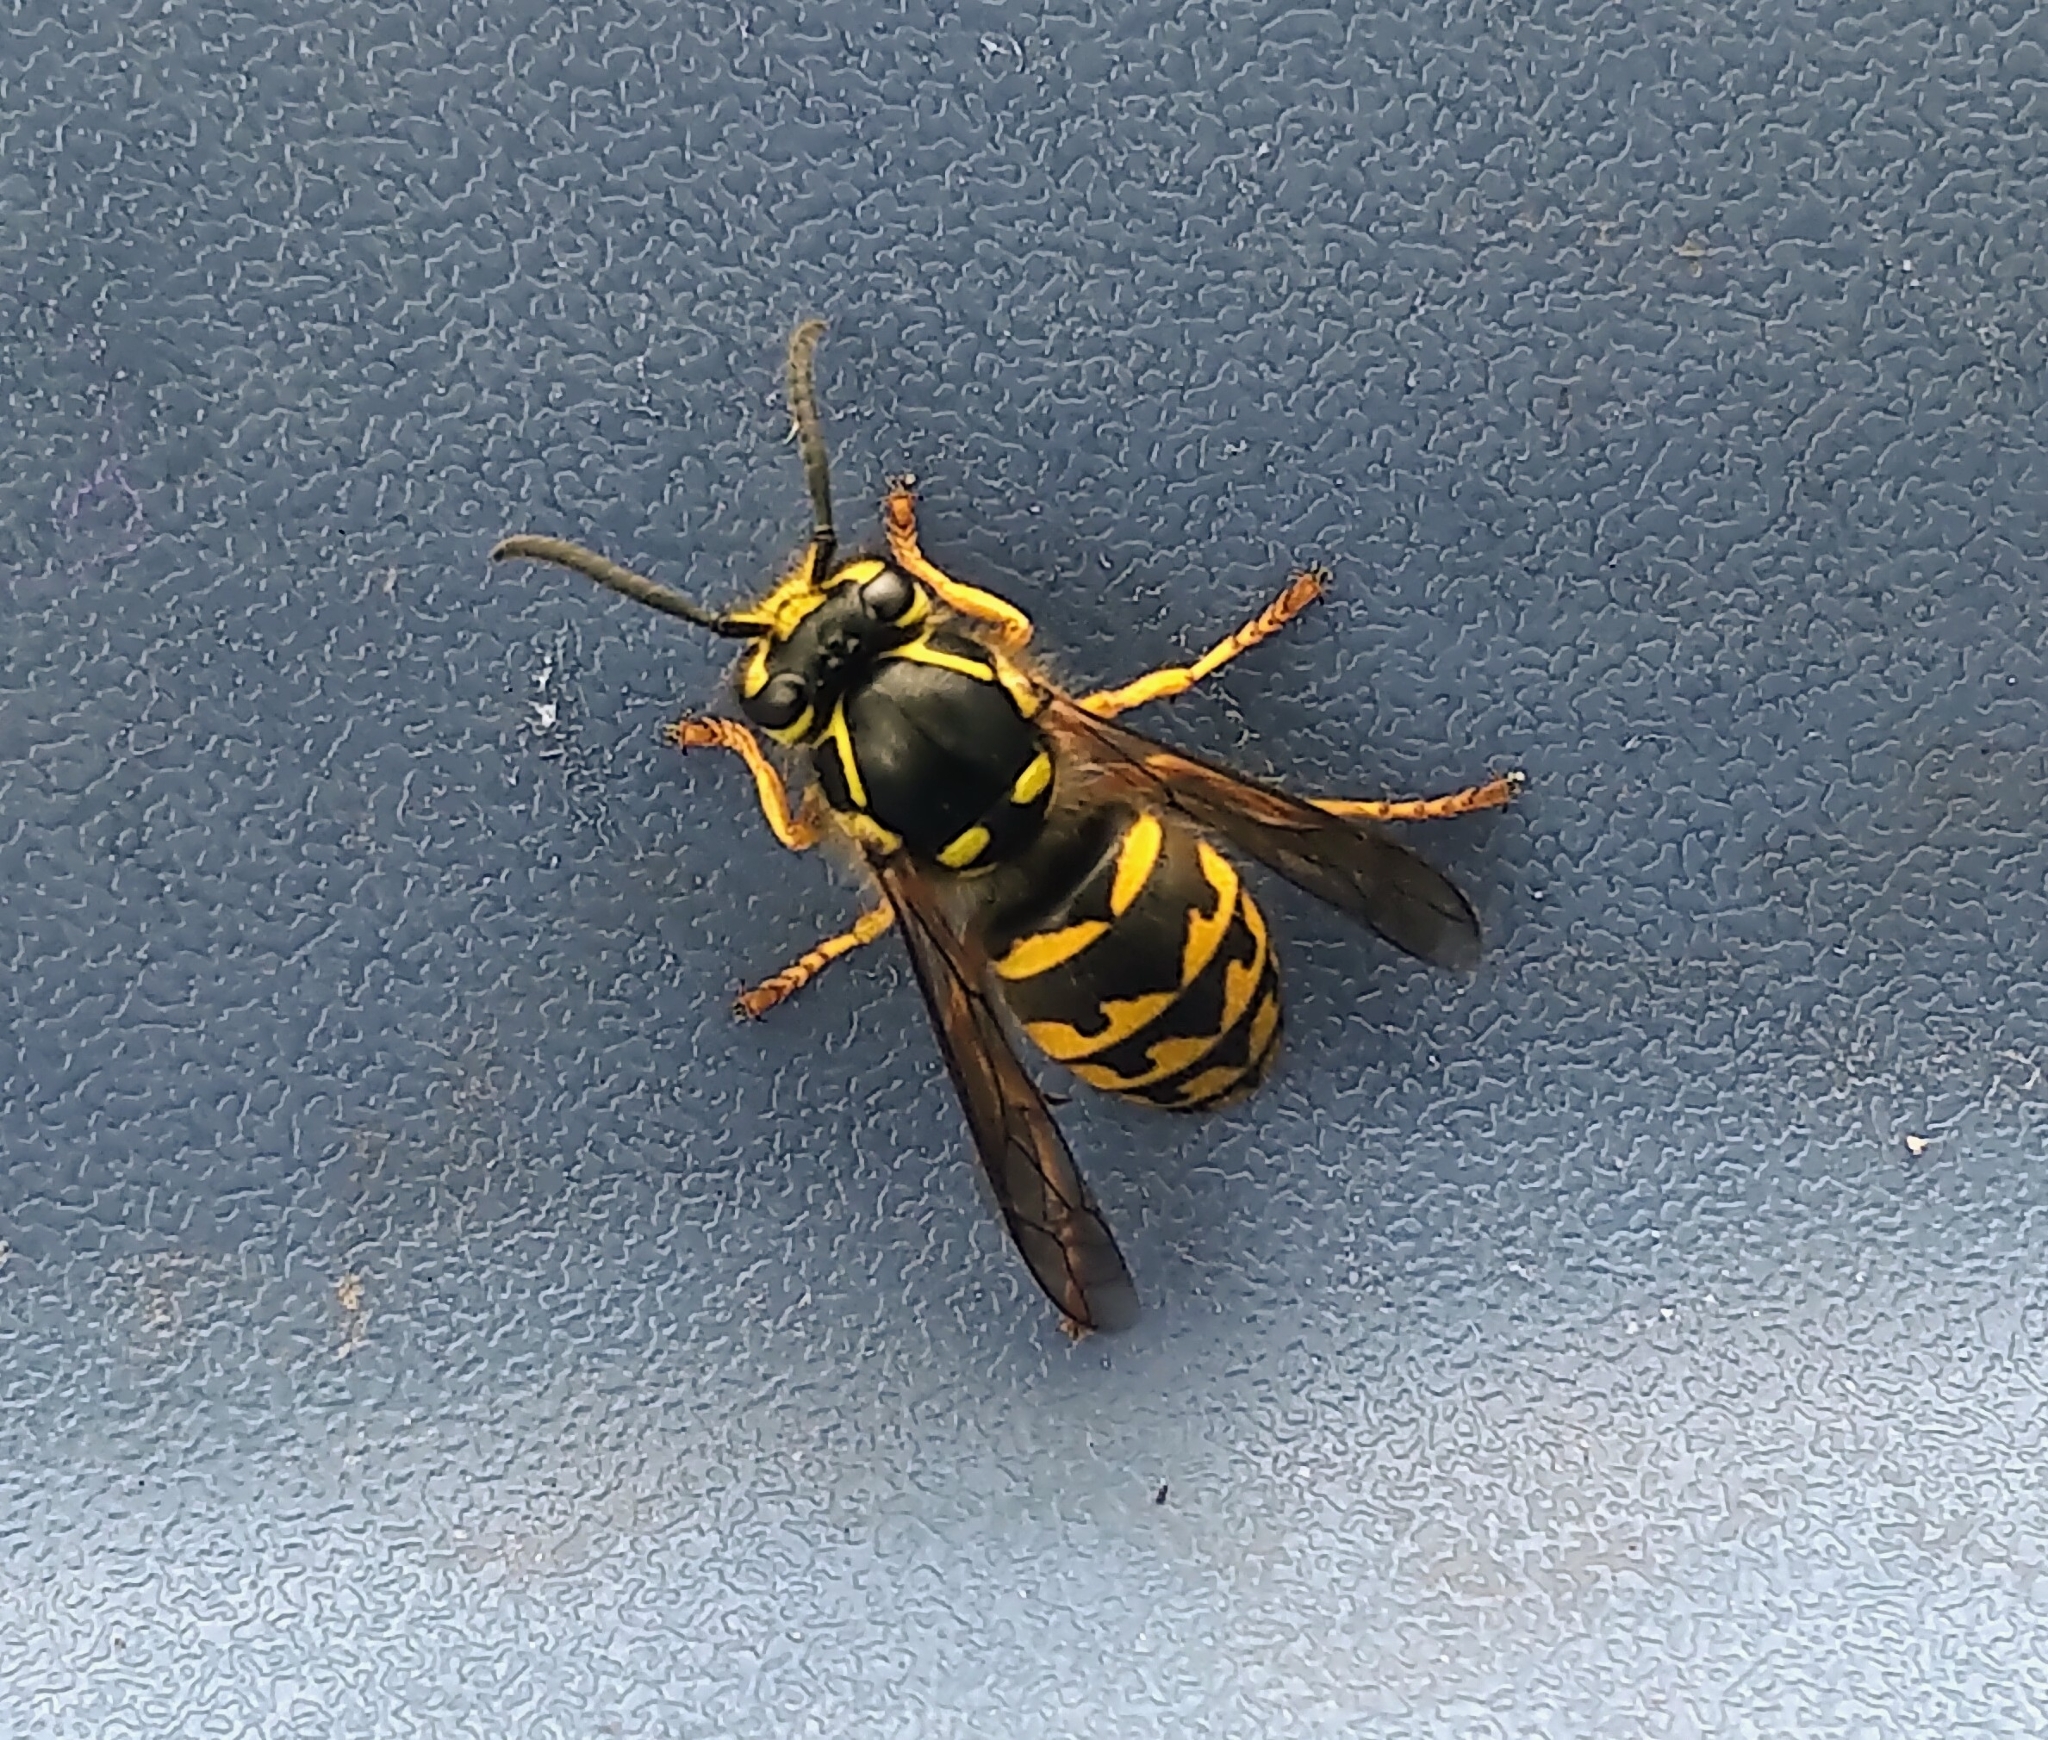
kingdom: Animalia
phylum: Arthropoda
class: Insecta
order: Hymenoptera
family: Vespidae
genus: Dolichovespula
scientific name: Dolichovespula arenaria
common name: Aerial yellowjacket
